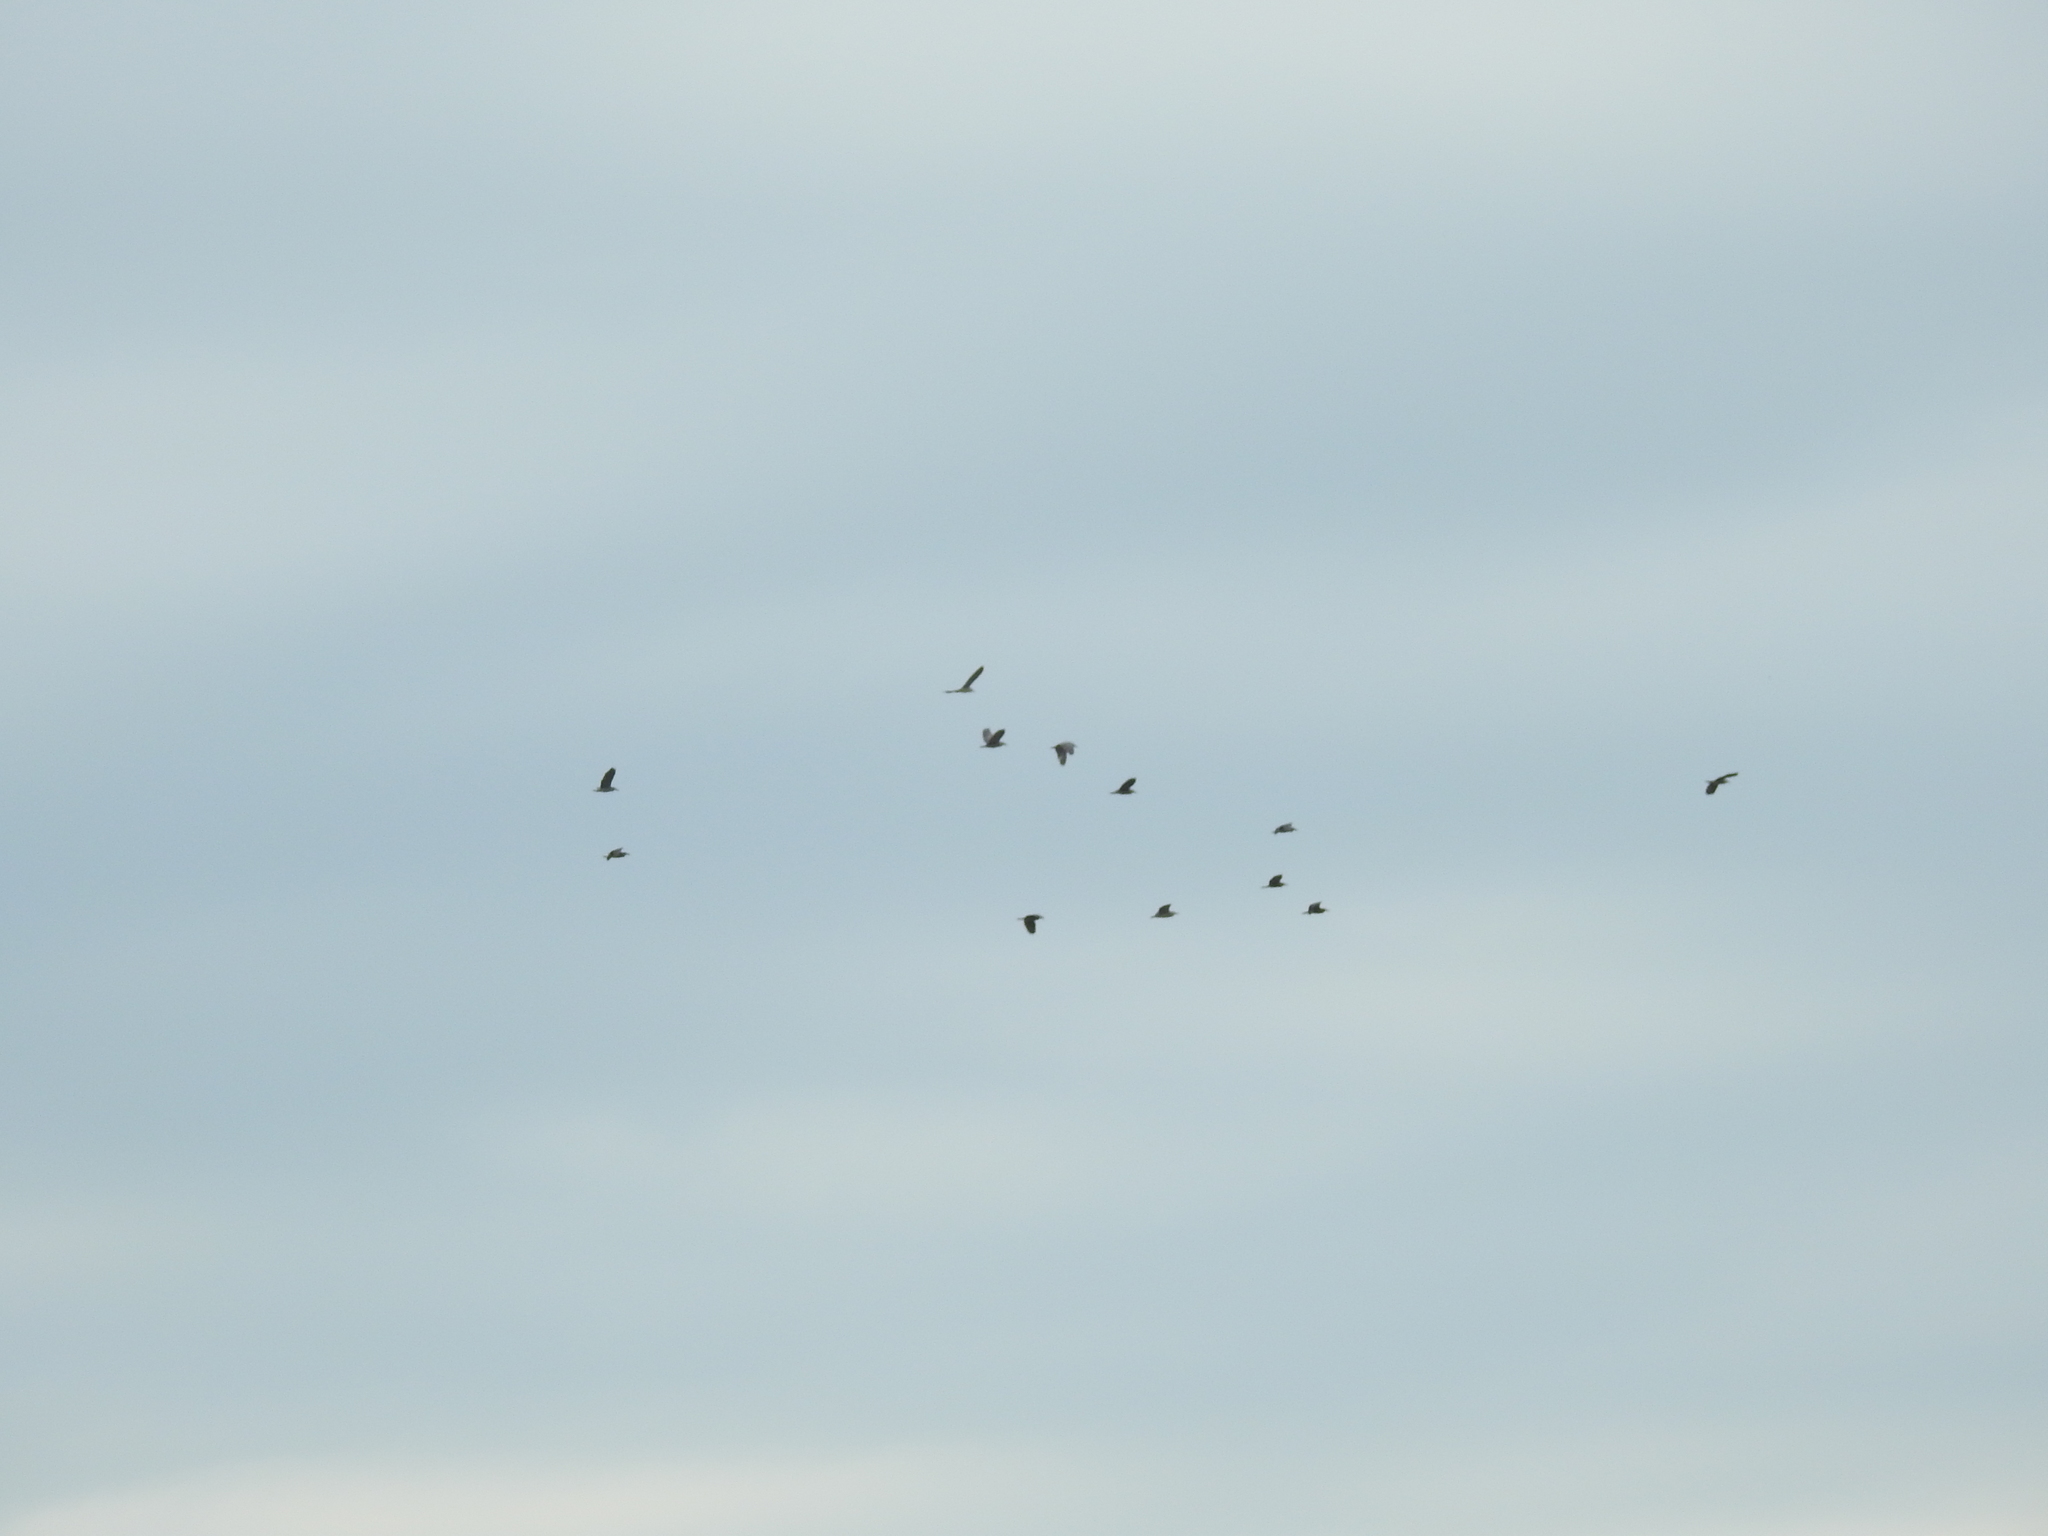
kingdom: Animalia
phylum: Chordata
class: Aves
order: Pelecaniformes
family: Ardeidae
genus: Nycticorax
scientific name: Nycticorax nycticorax
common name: Black-crowned night heron
